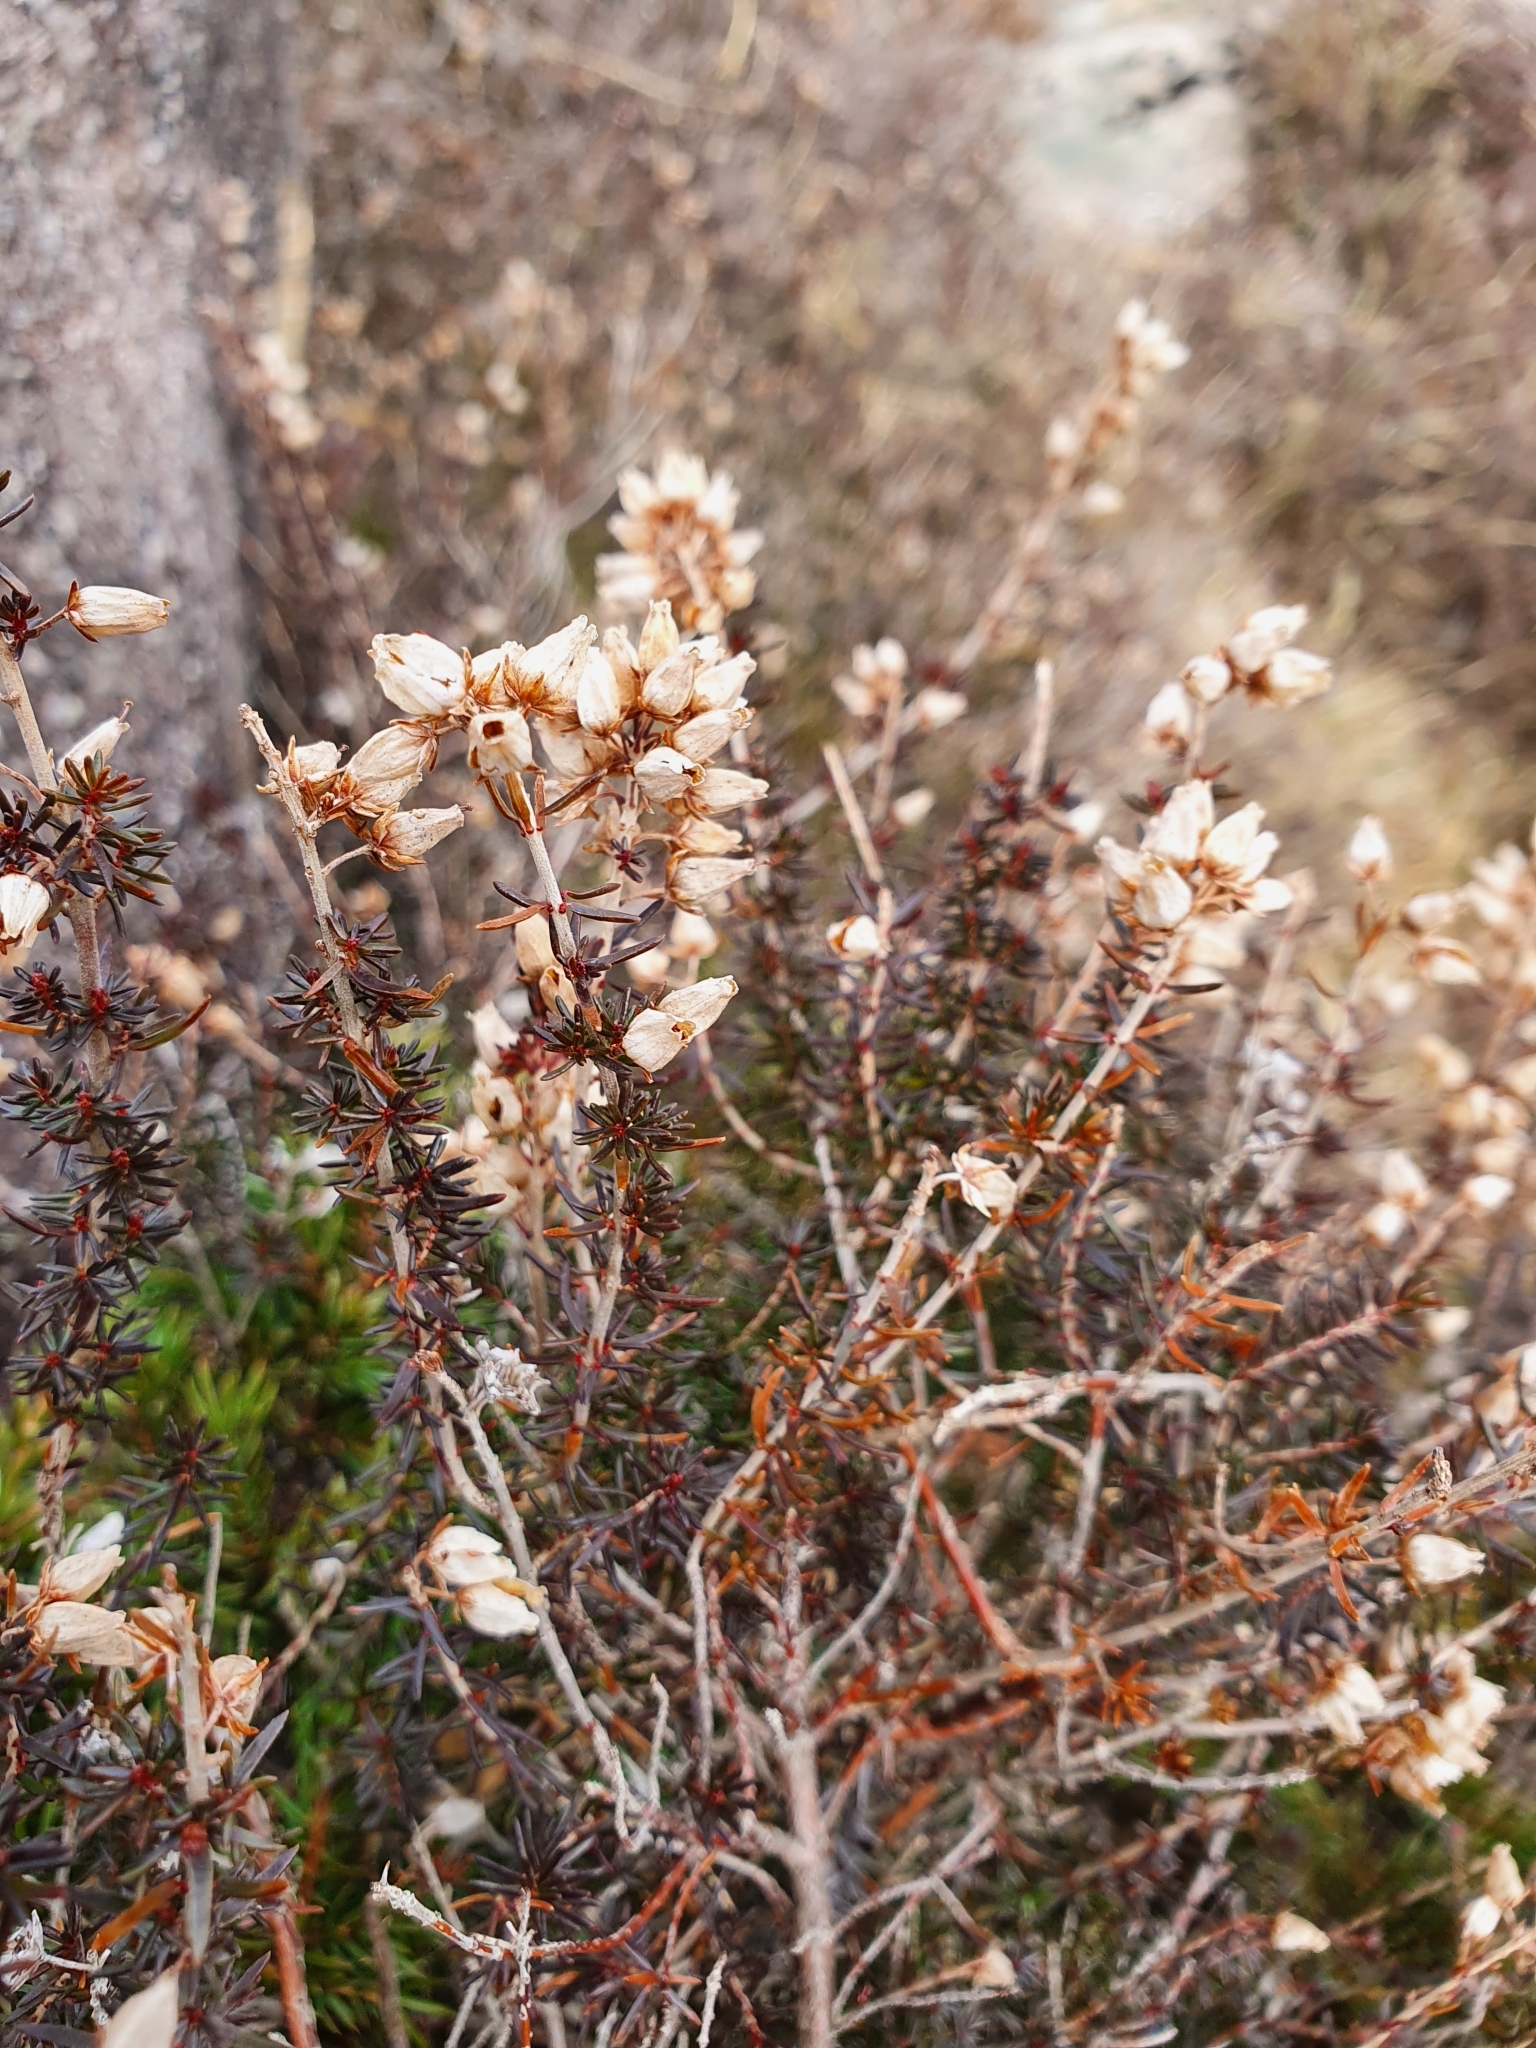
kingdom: Plantae
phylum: Tracheophyta
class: Magnoliopsida
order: Ericales
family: Ericaceae
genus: Erica
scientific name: Erica cinerea
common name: Bell heather
